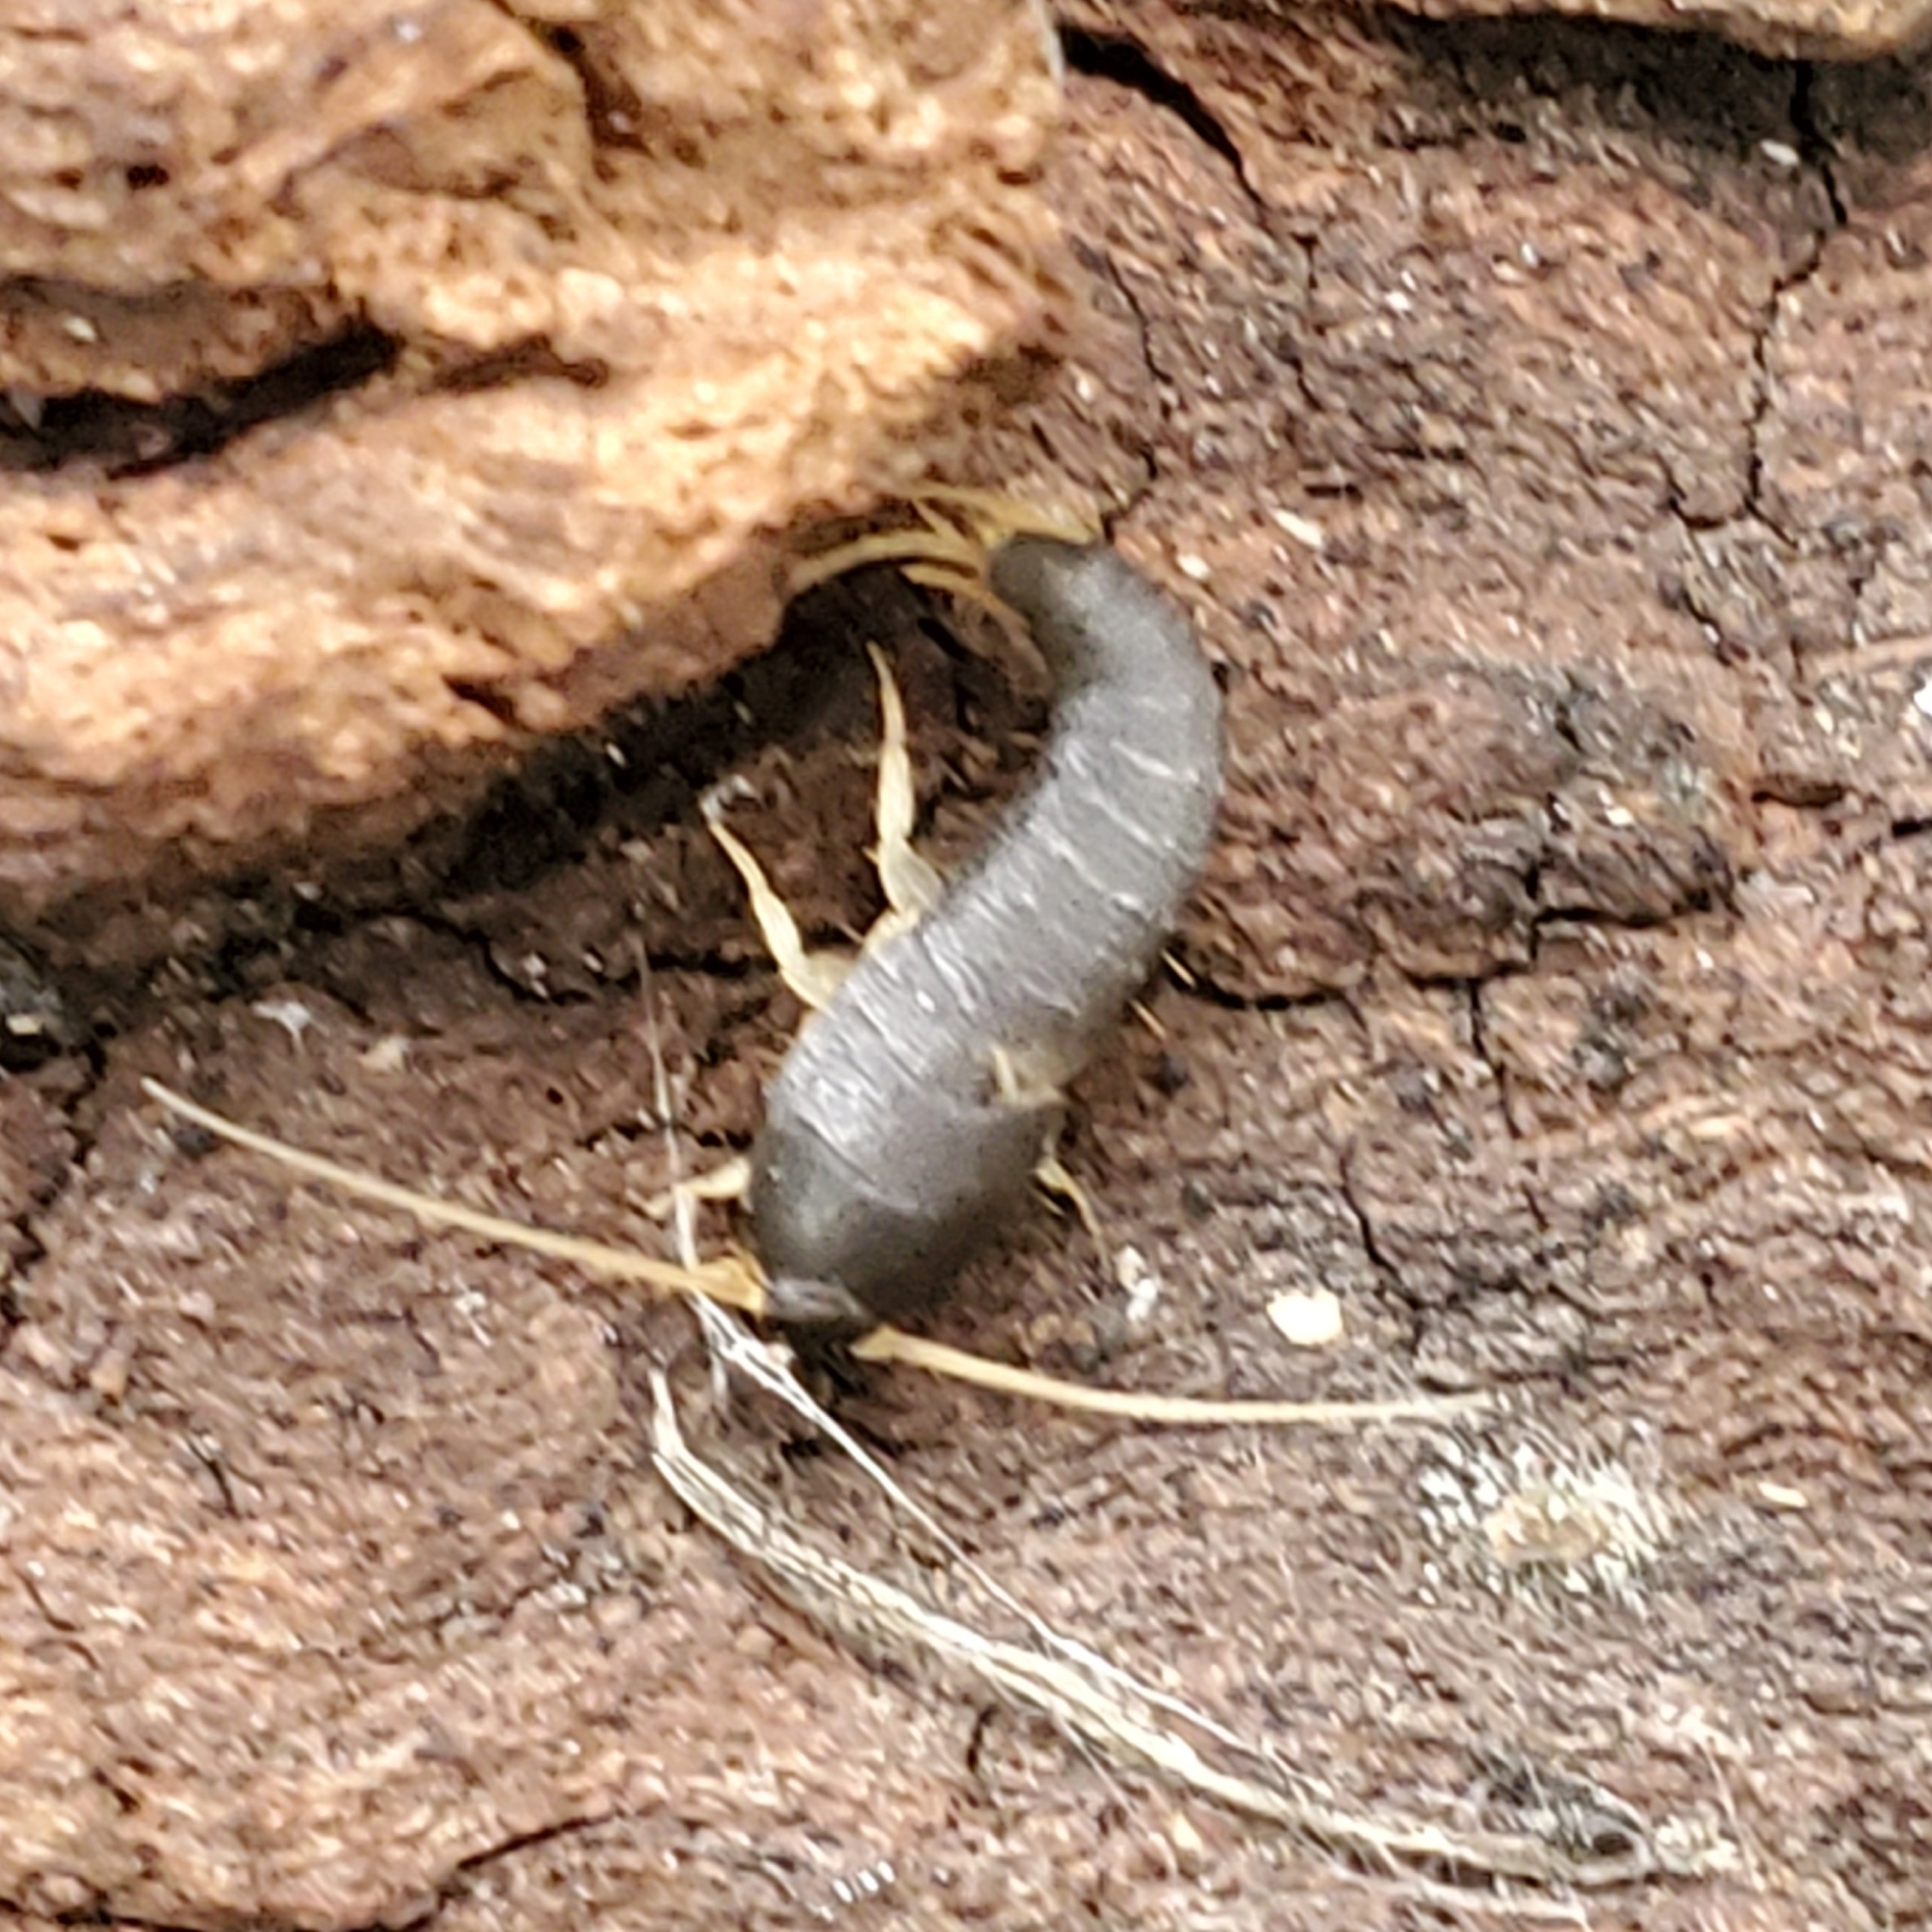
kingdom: Animalia
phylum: Arthropoda
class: Insecta
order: Zygentoma
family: Lepismatidae
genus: Lepisma
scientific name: Lepisma saccharinum
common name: Silverfish
